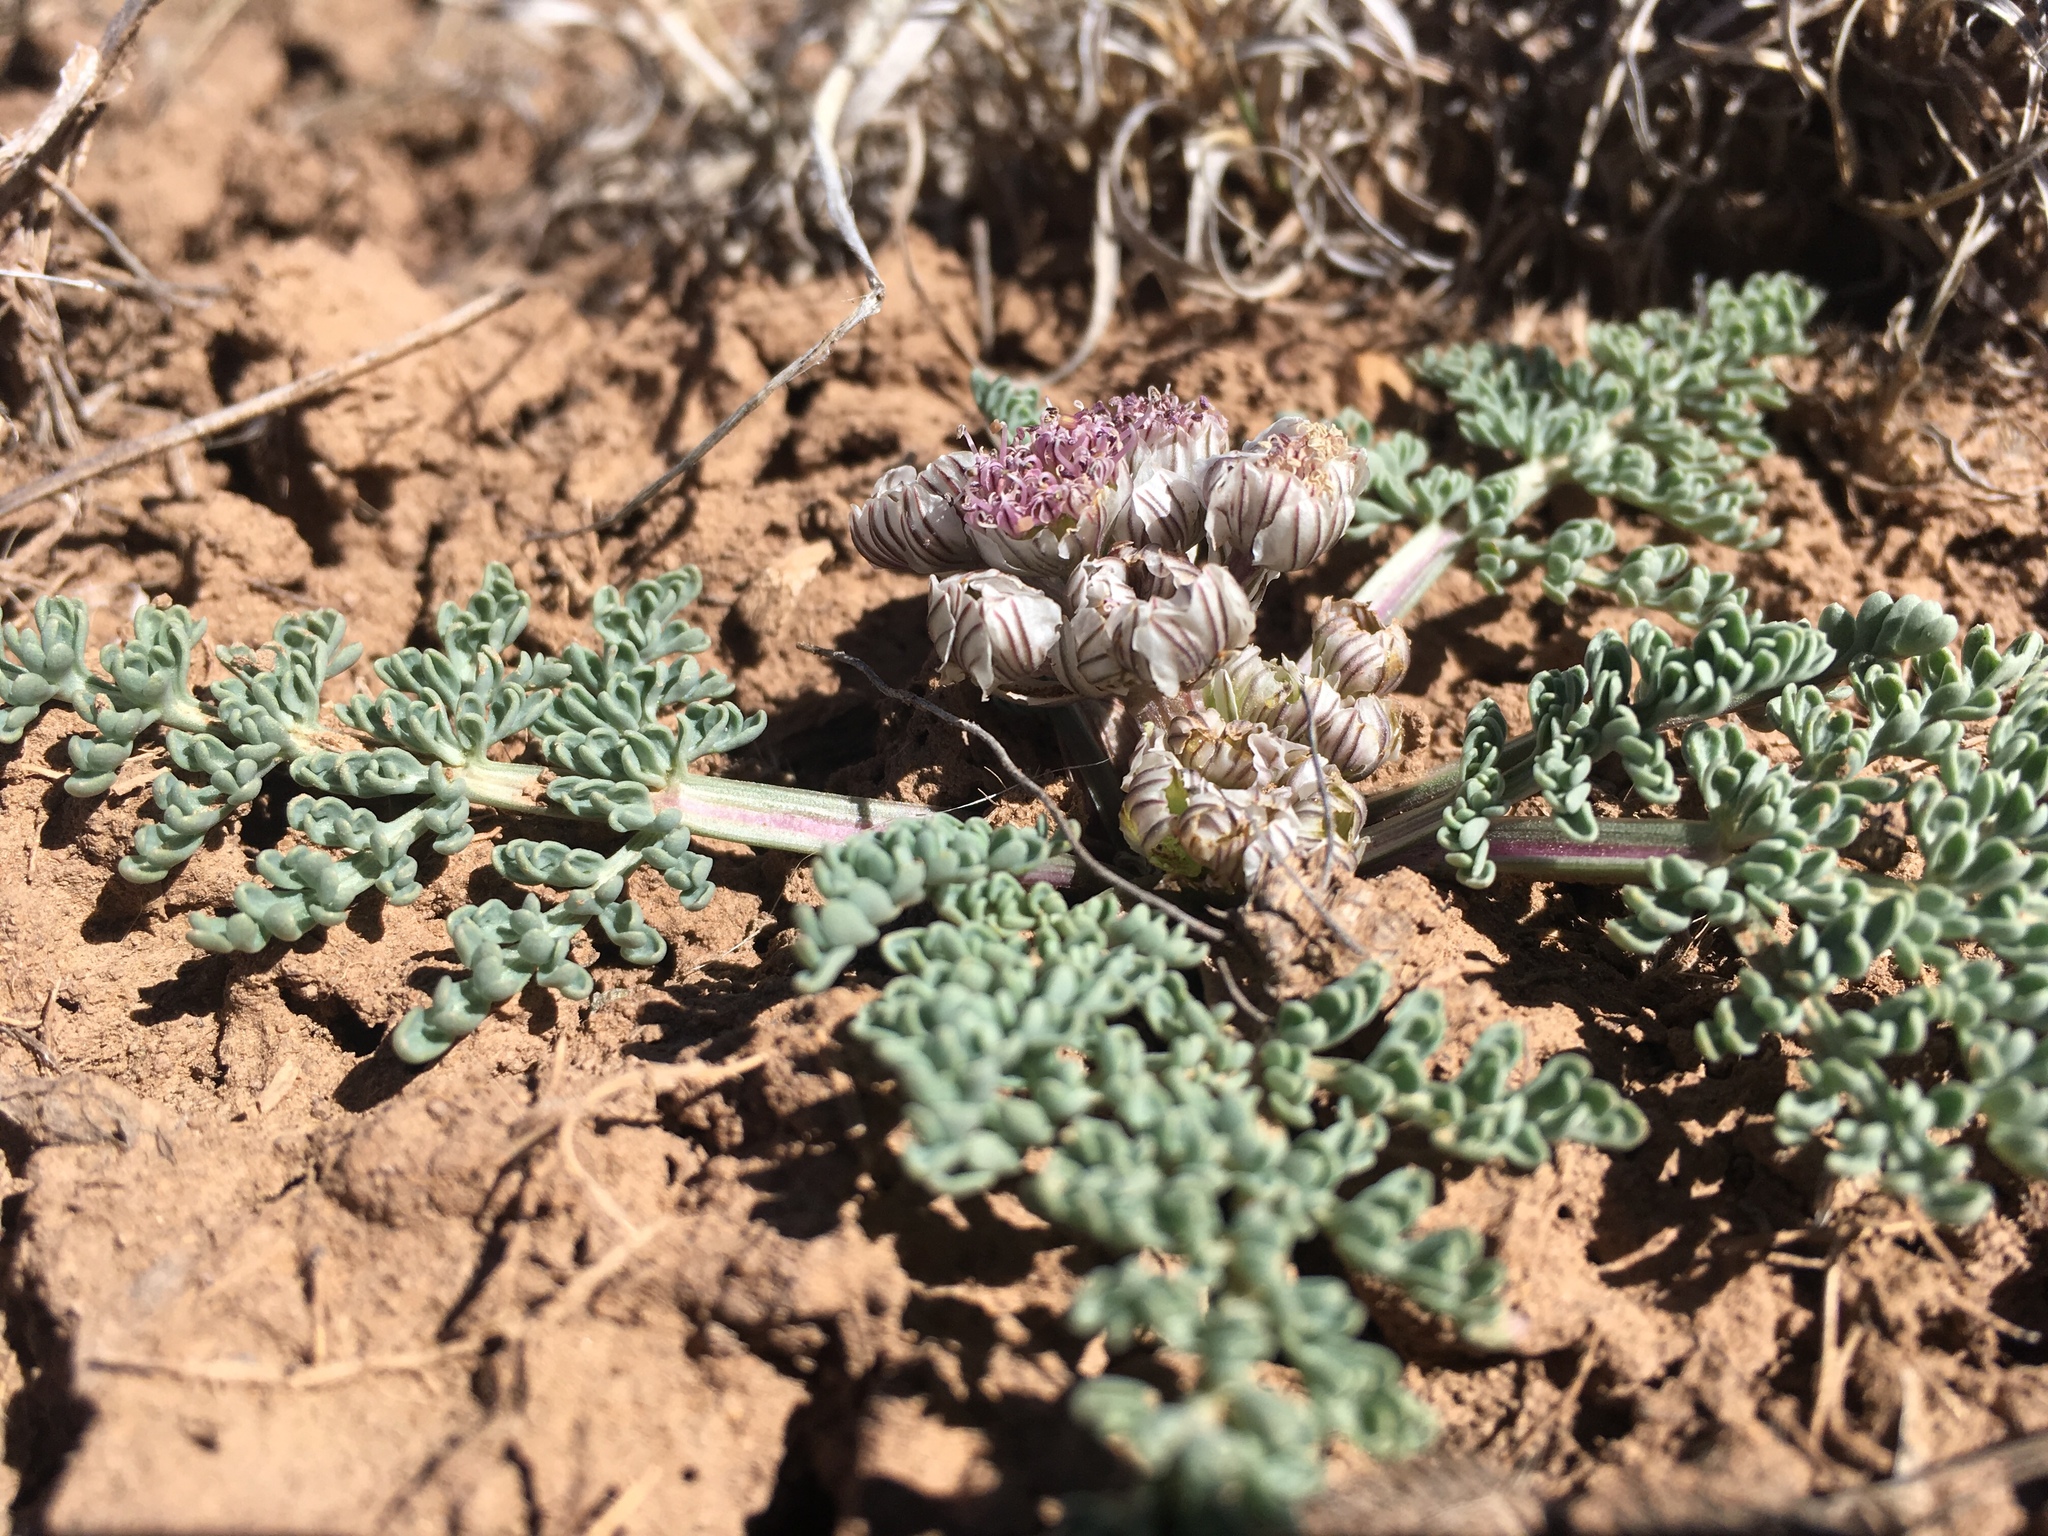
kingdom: Plantae
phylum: Tracheophyta
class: Magnoliopsida
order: Apiales
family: Apiaceae
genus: Vesper
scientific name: Vesper constancei
